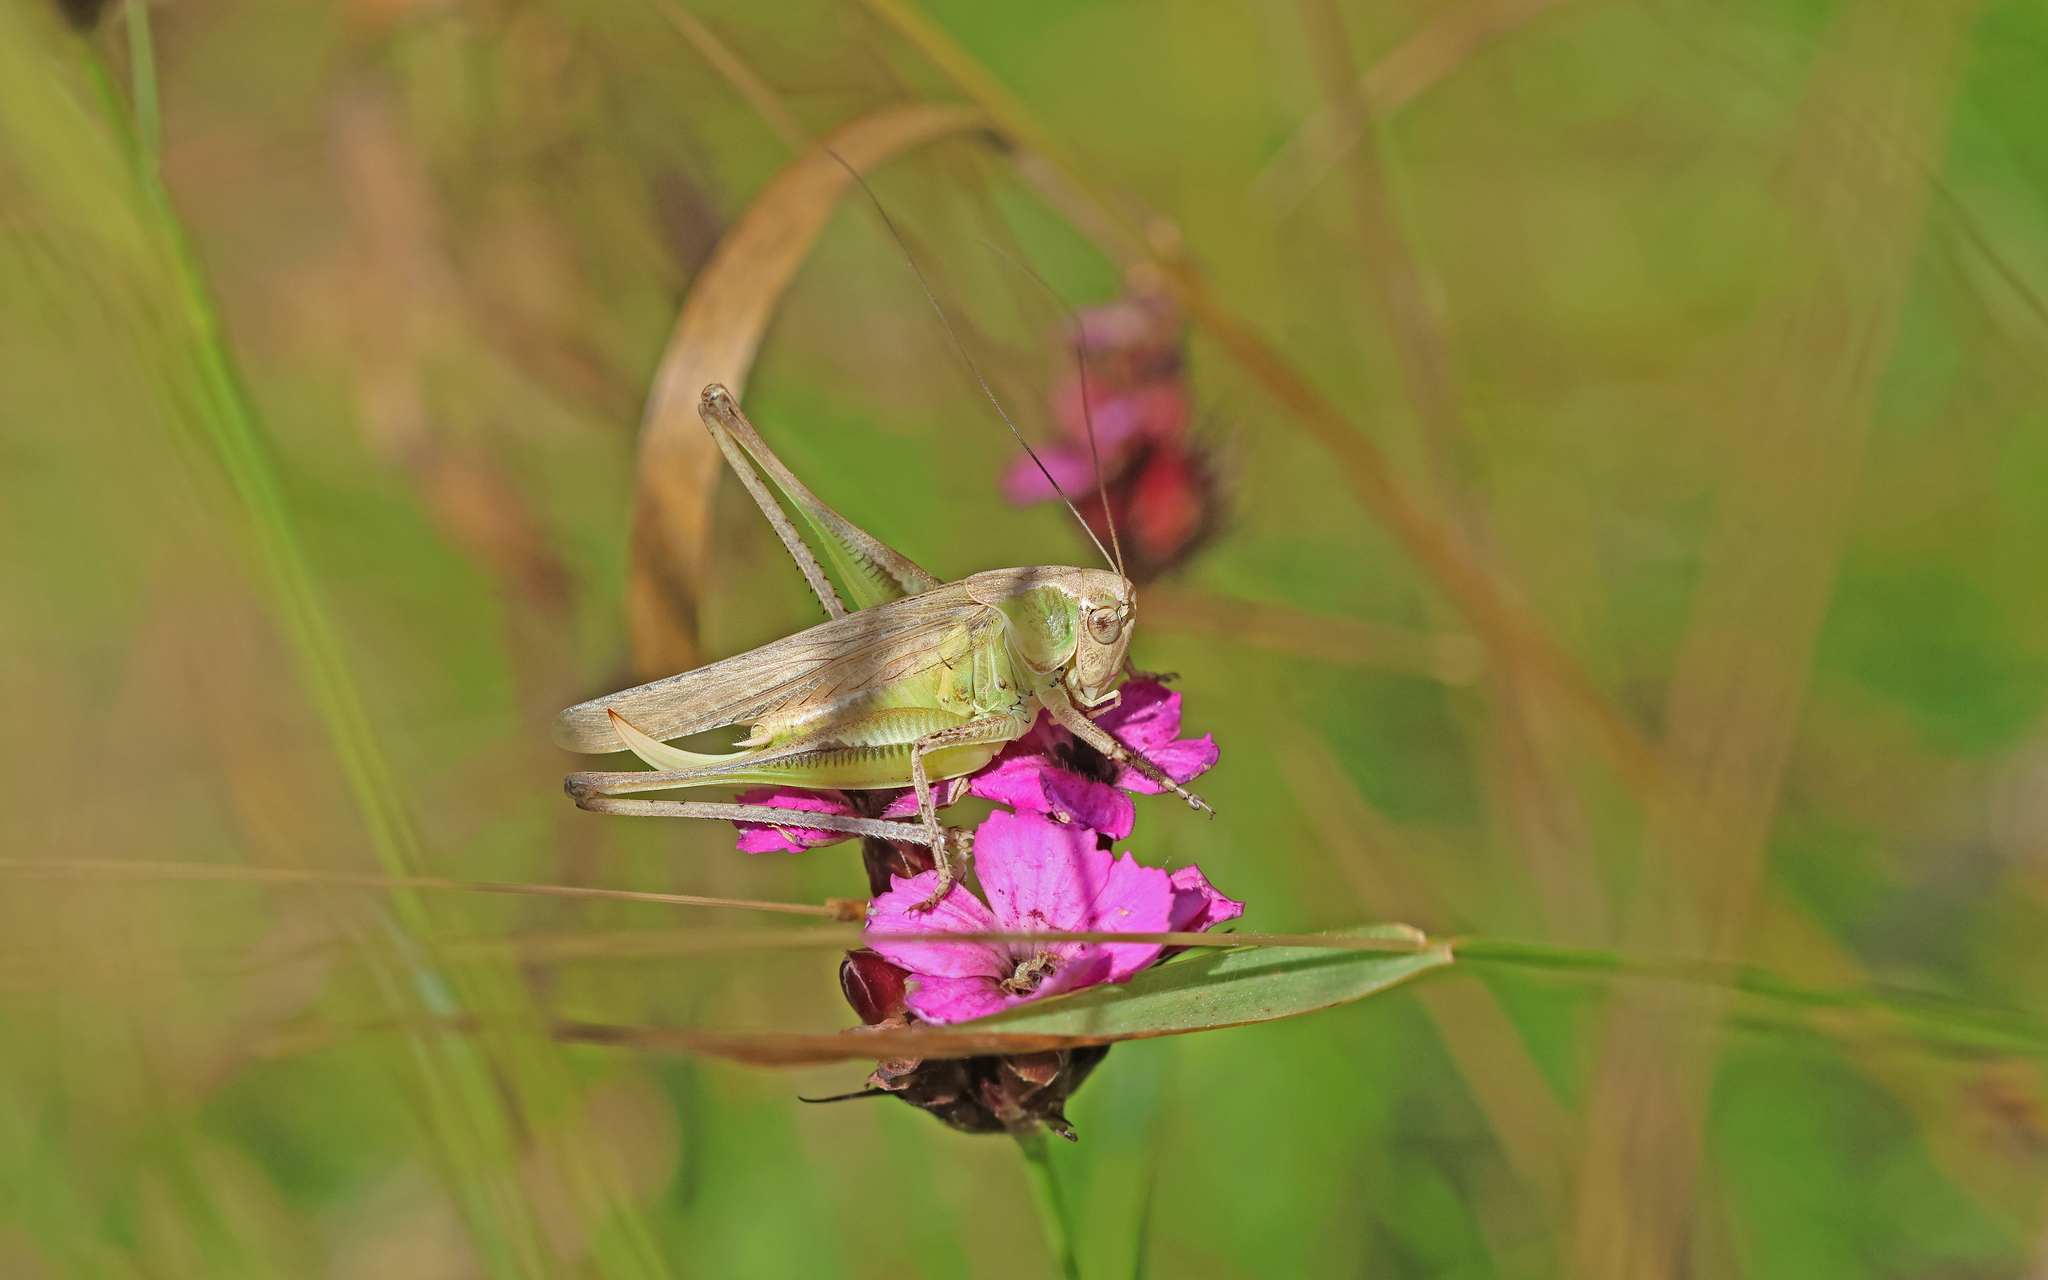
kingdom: Animalia
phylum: Arthropoda
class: Insecta
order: Orthoptera
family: Tettigoniidae
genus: Platycleis
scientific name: Platycleis albopunctata
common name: Grey bush-cricket
